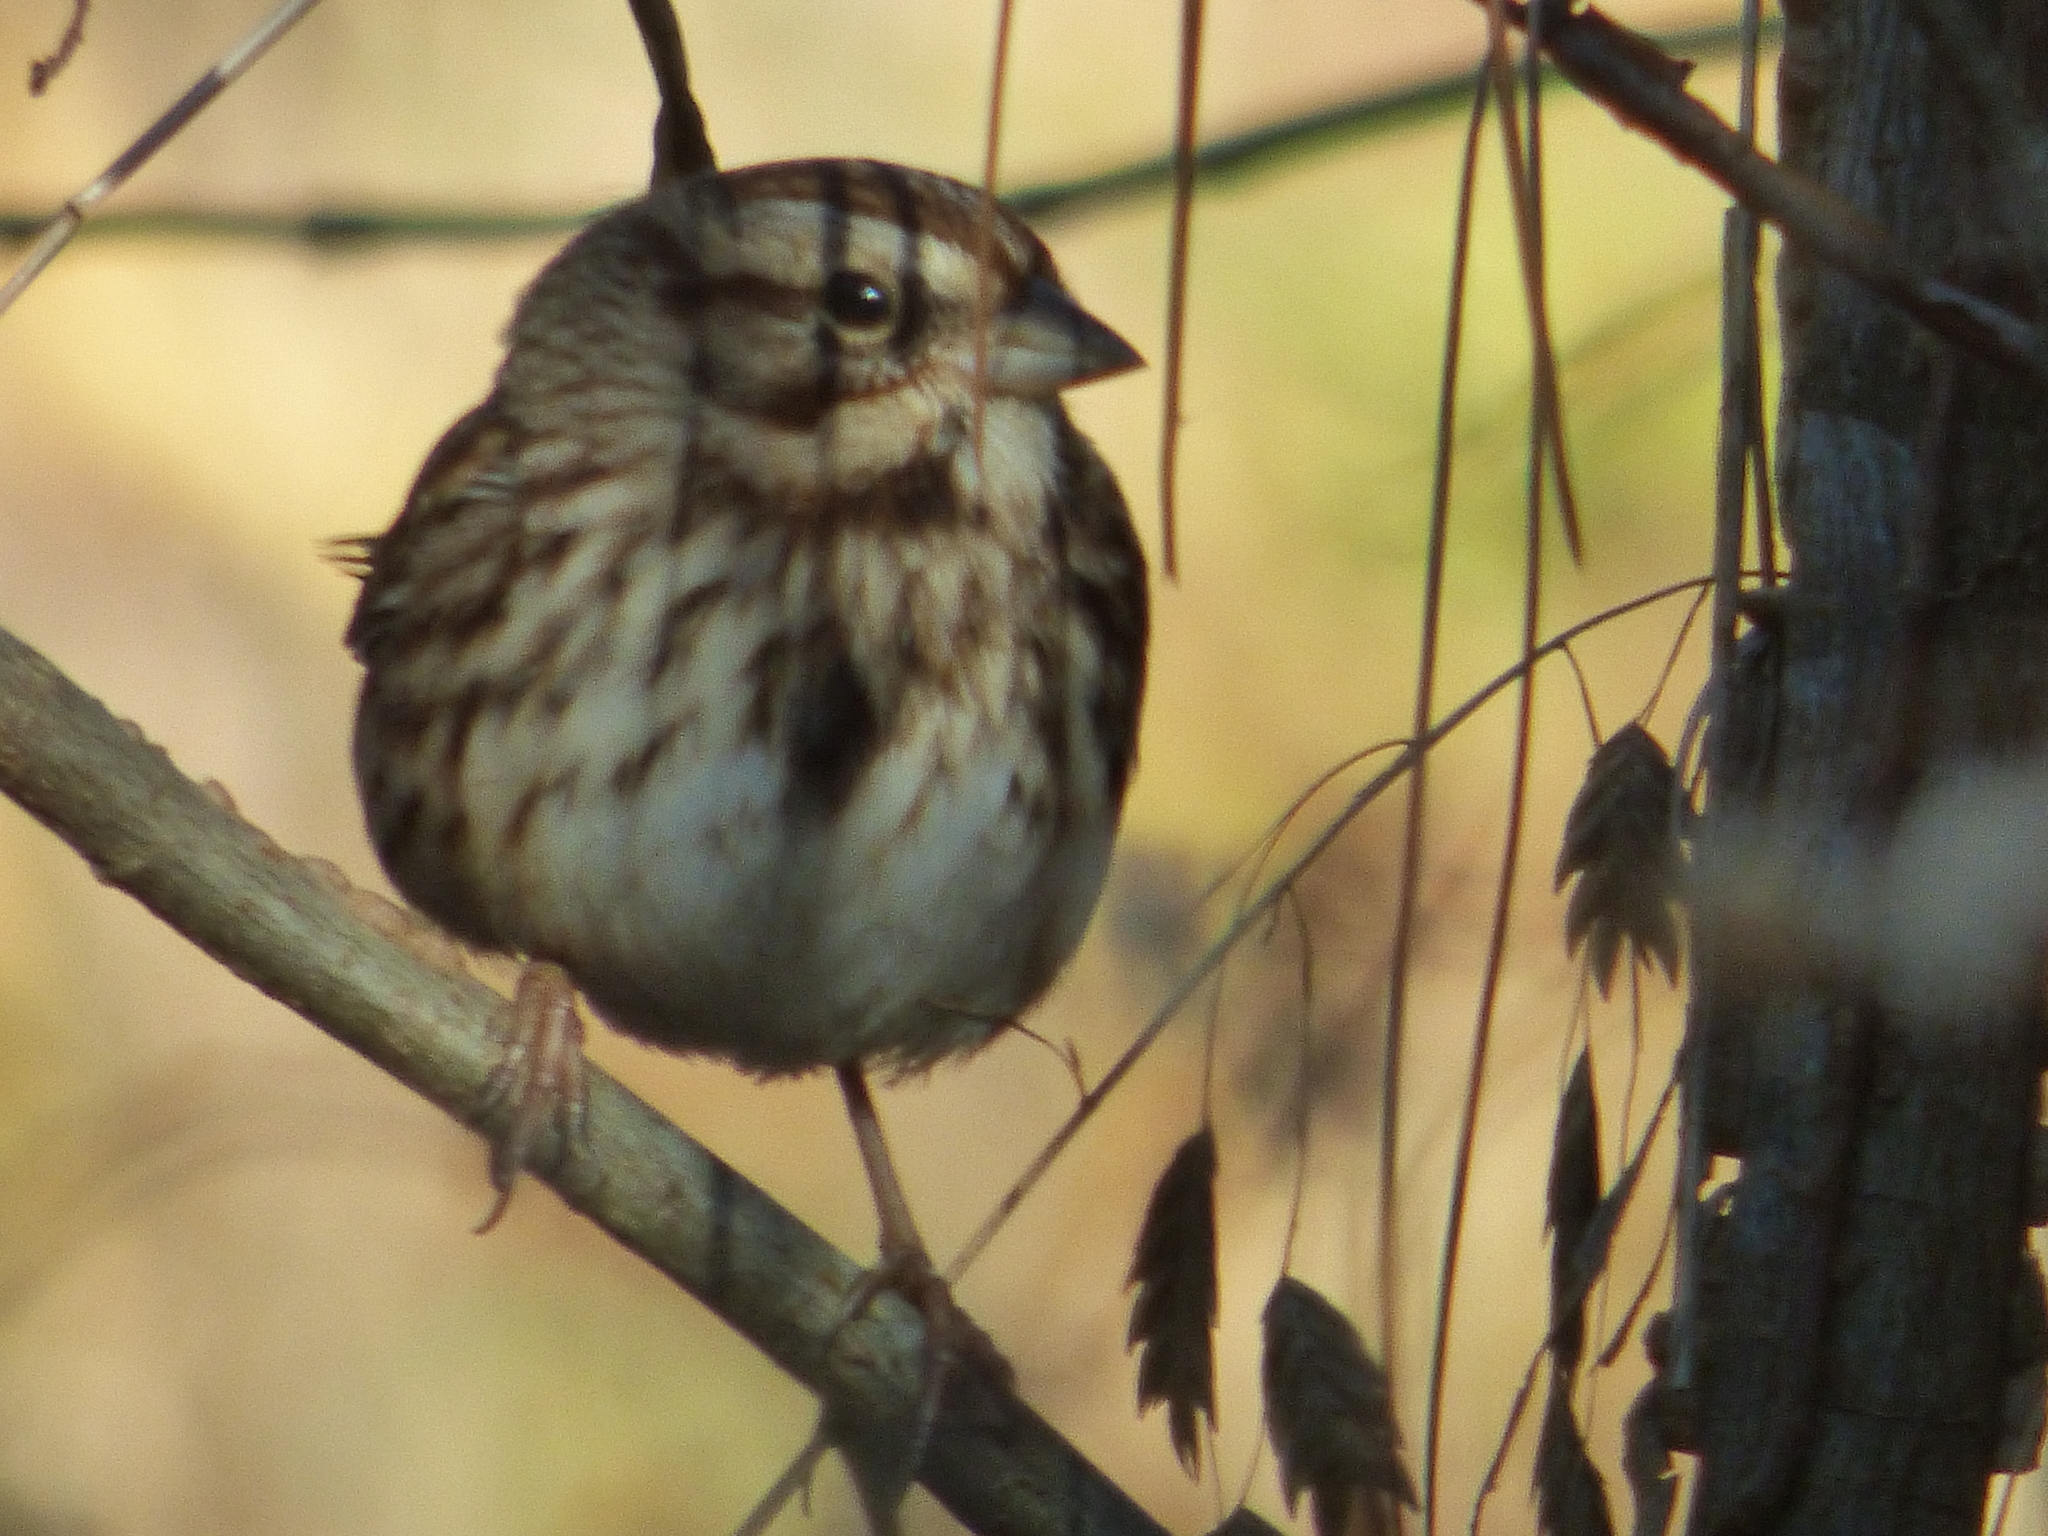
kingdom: Animalia
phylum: Chordata
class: Aves
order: Passeriformes
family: Passerellidae
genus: Melospiza
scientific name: Melospiza melodia
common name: Song sparrow
